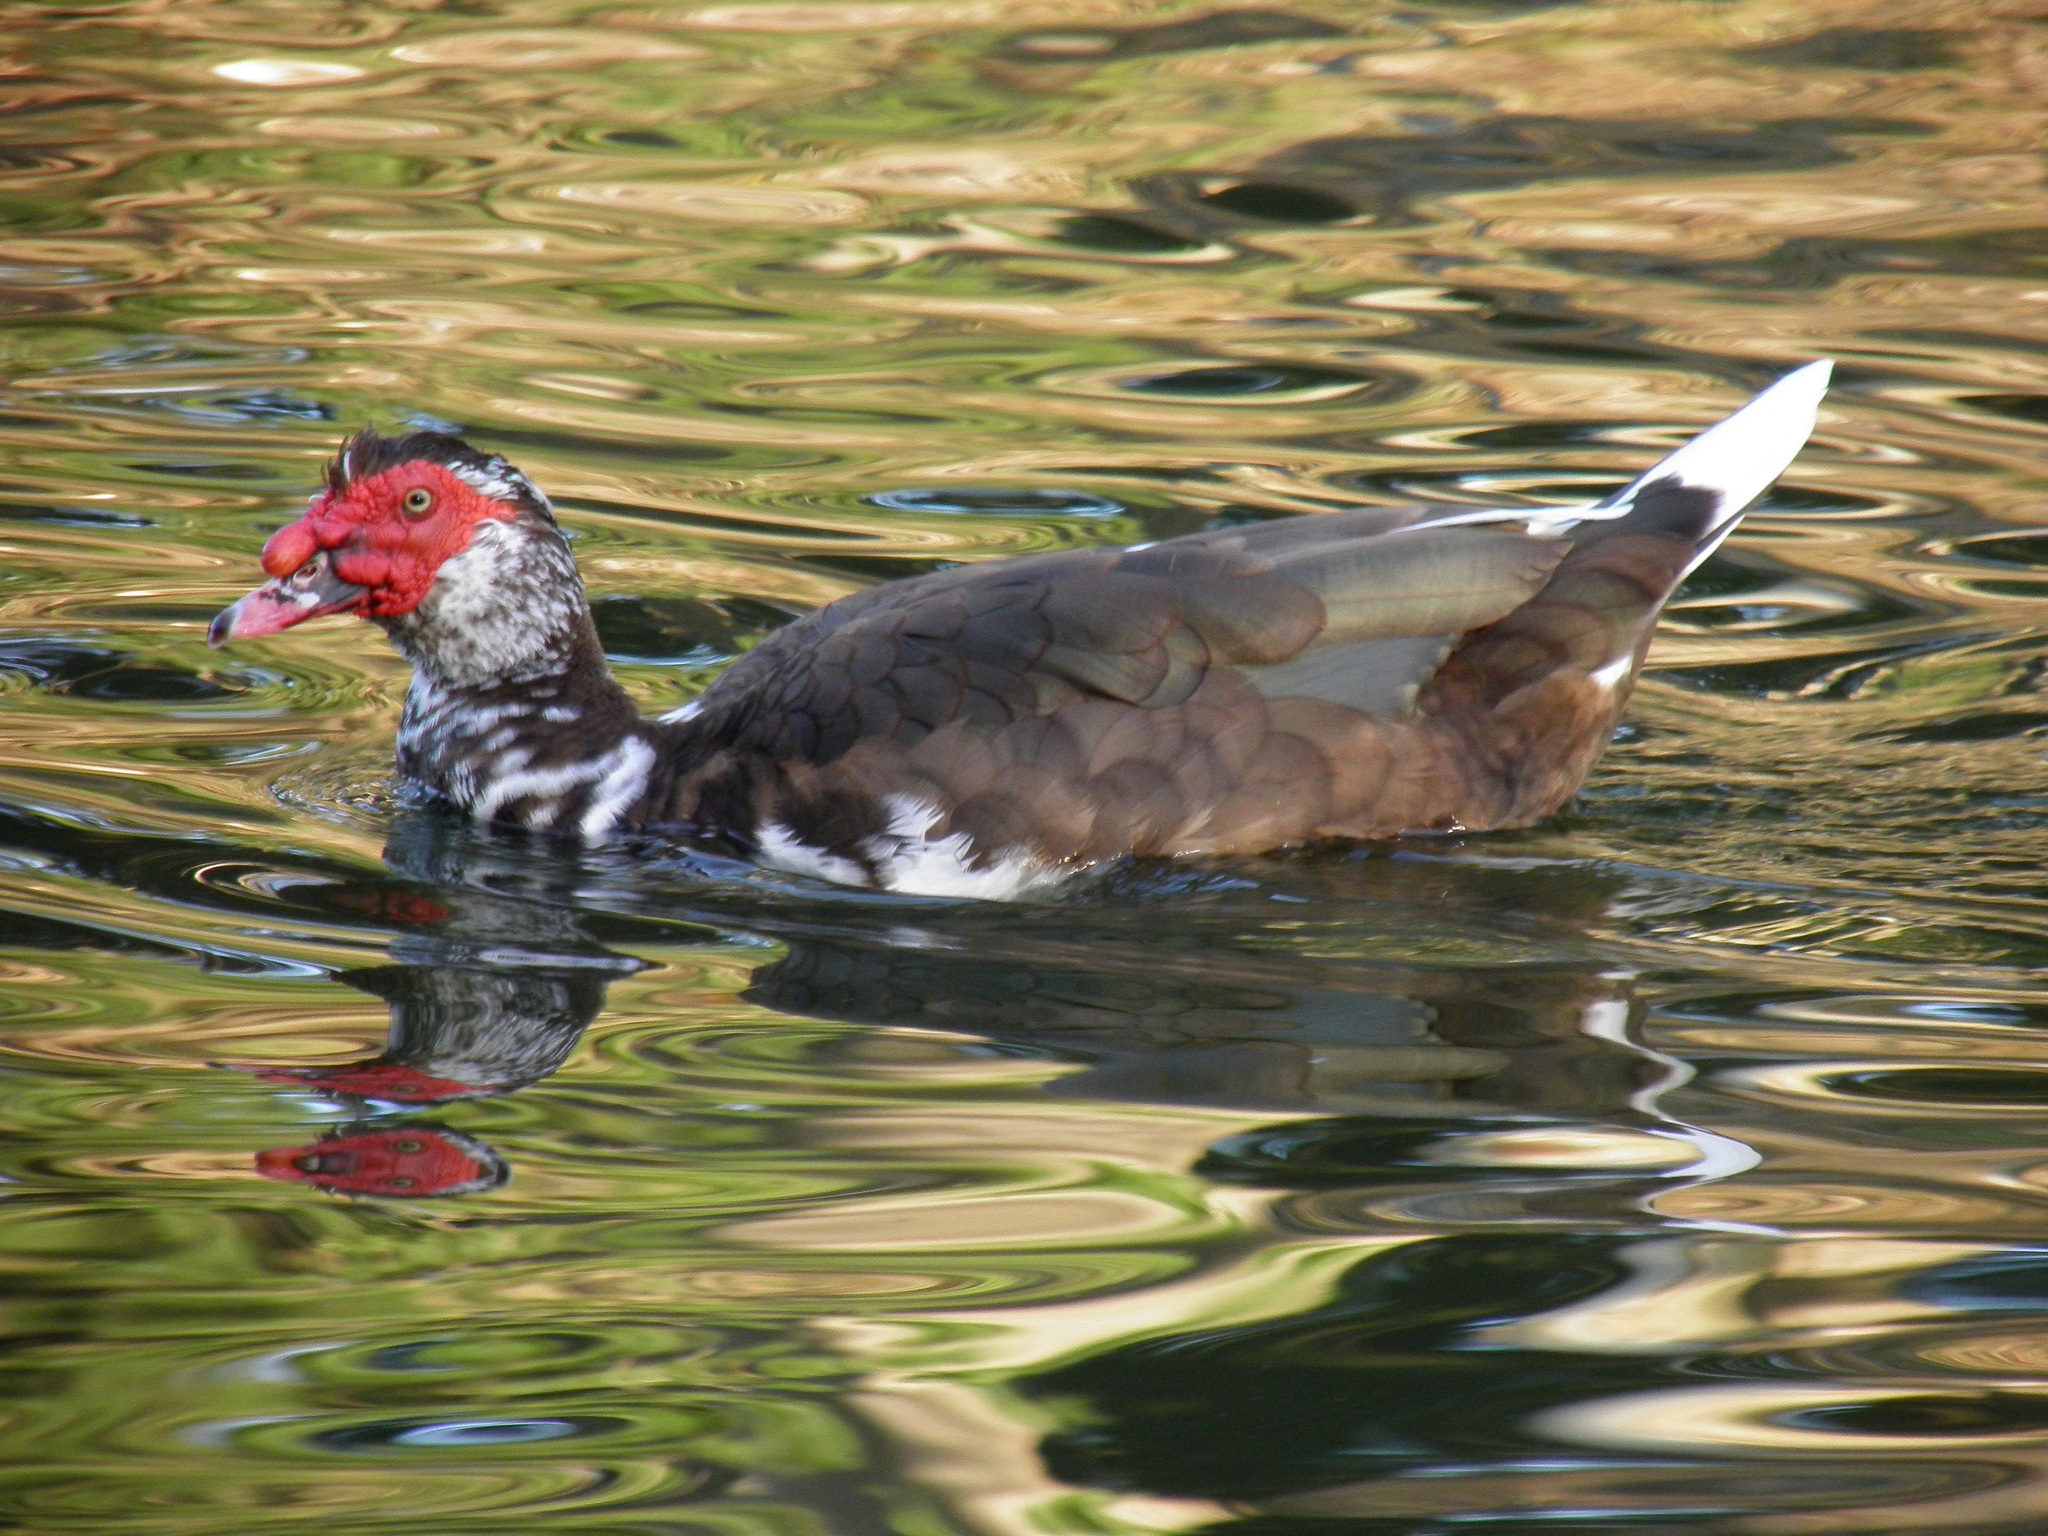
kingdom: Animalia
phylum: Chordata
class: Aves
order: Anseriformes
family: Anatidae
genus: Cairina
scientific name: Cairina moschata
